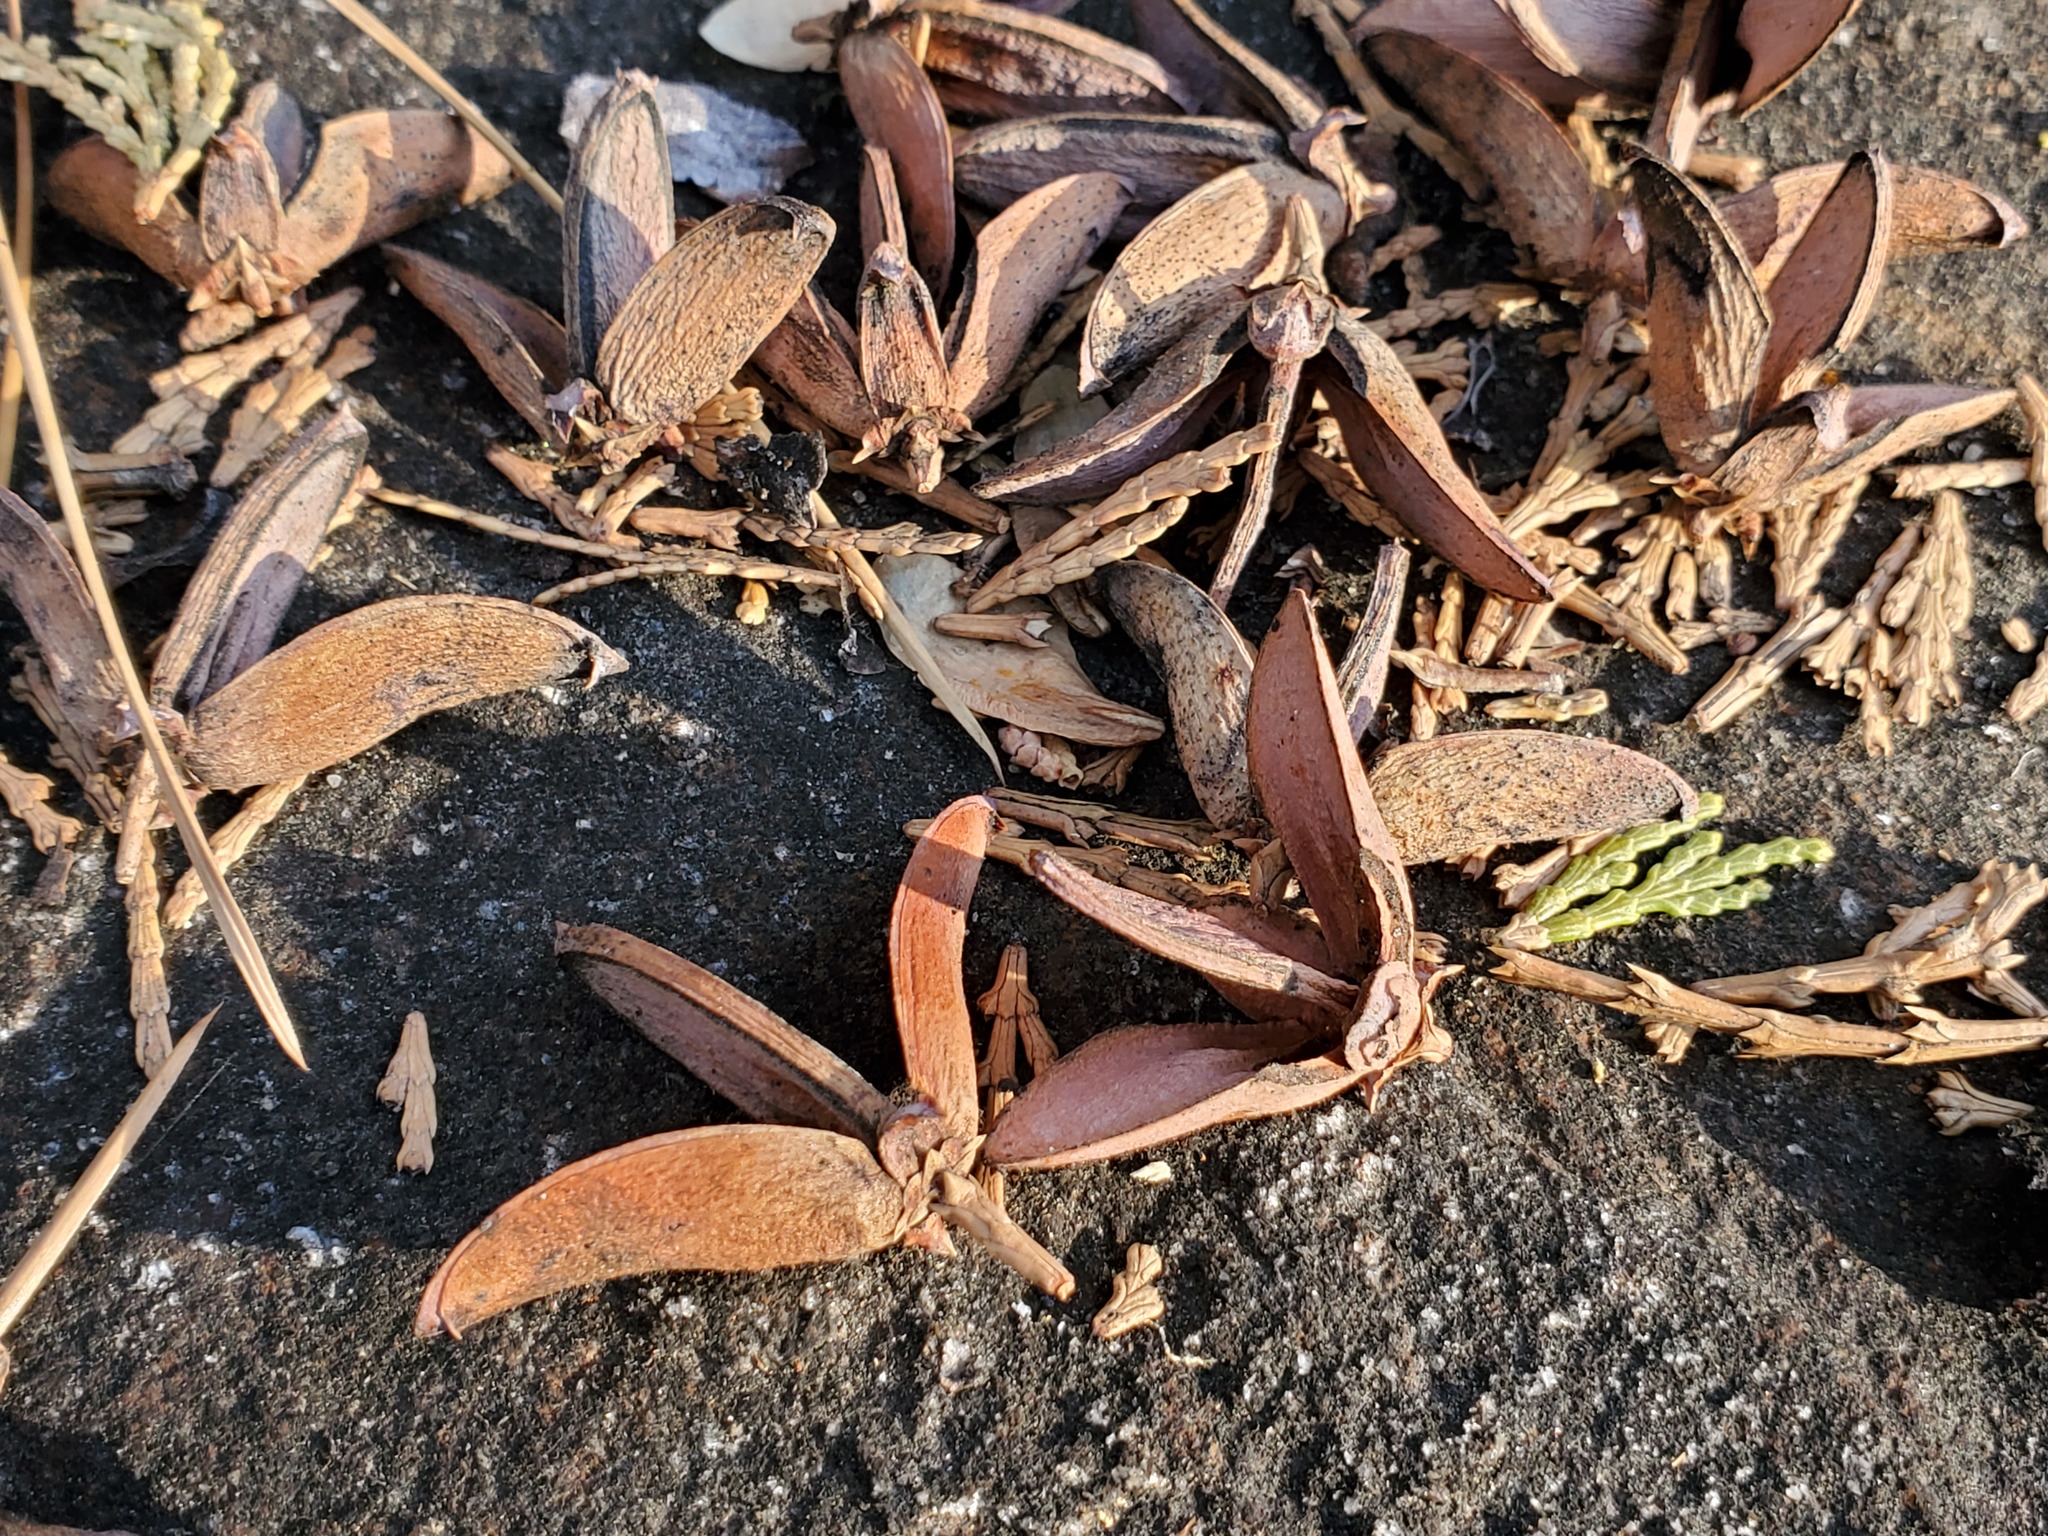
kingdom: Plantae
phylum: Tracheophyta
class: Pinopsida
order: Pinales
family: Cupressaceae
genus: Calocedrus
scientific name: Calocedrus decurrens
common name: Californian incense-cedar
